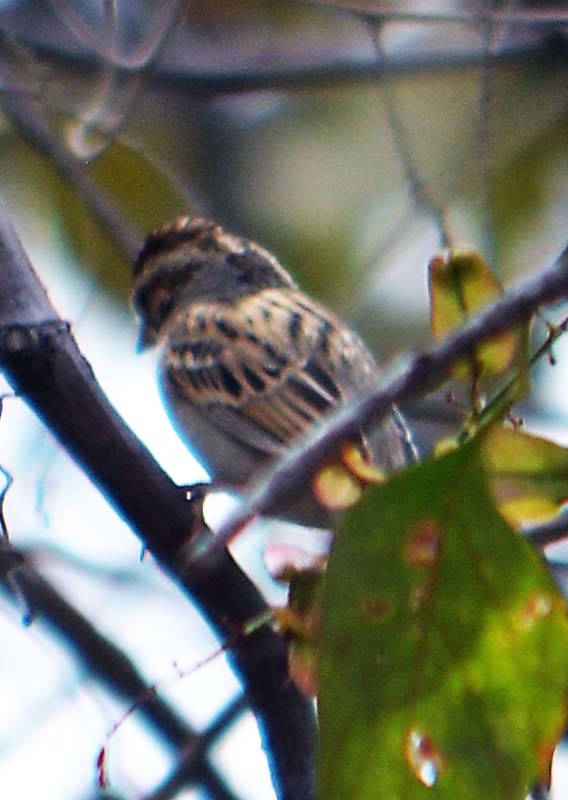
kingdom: Animalia
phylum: Chordata
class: Aves
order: Passeriformes
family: Passerellidae
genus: Chondestes
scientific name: Chondestes grammacus
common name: Lark sparrow
